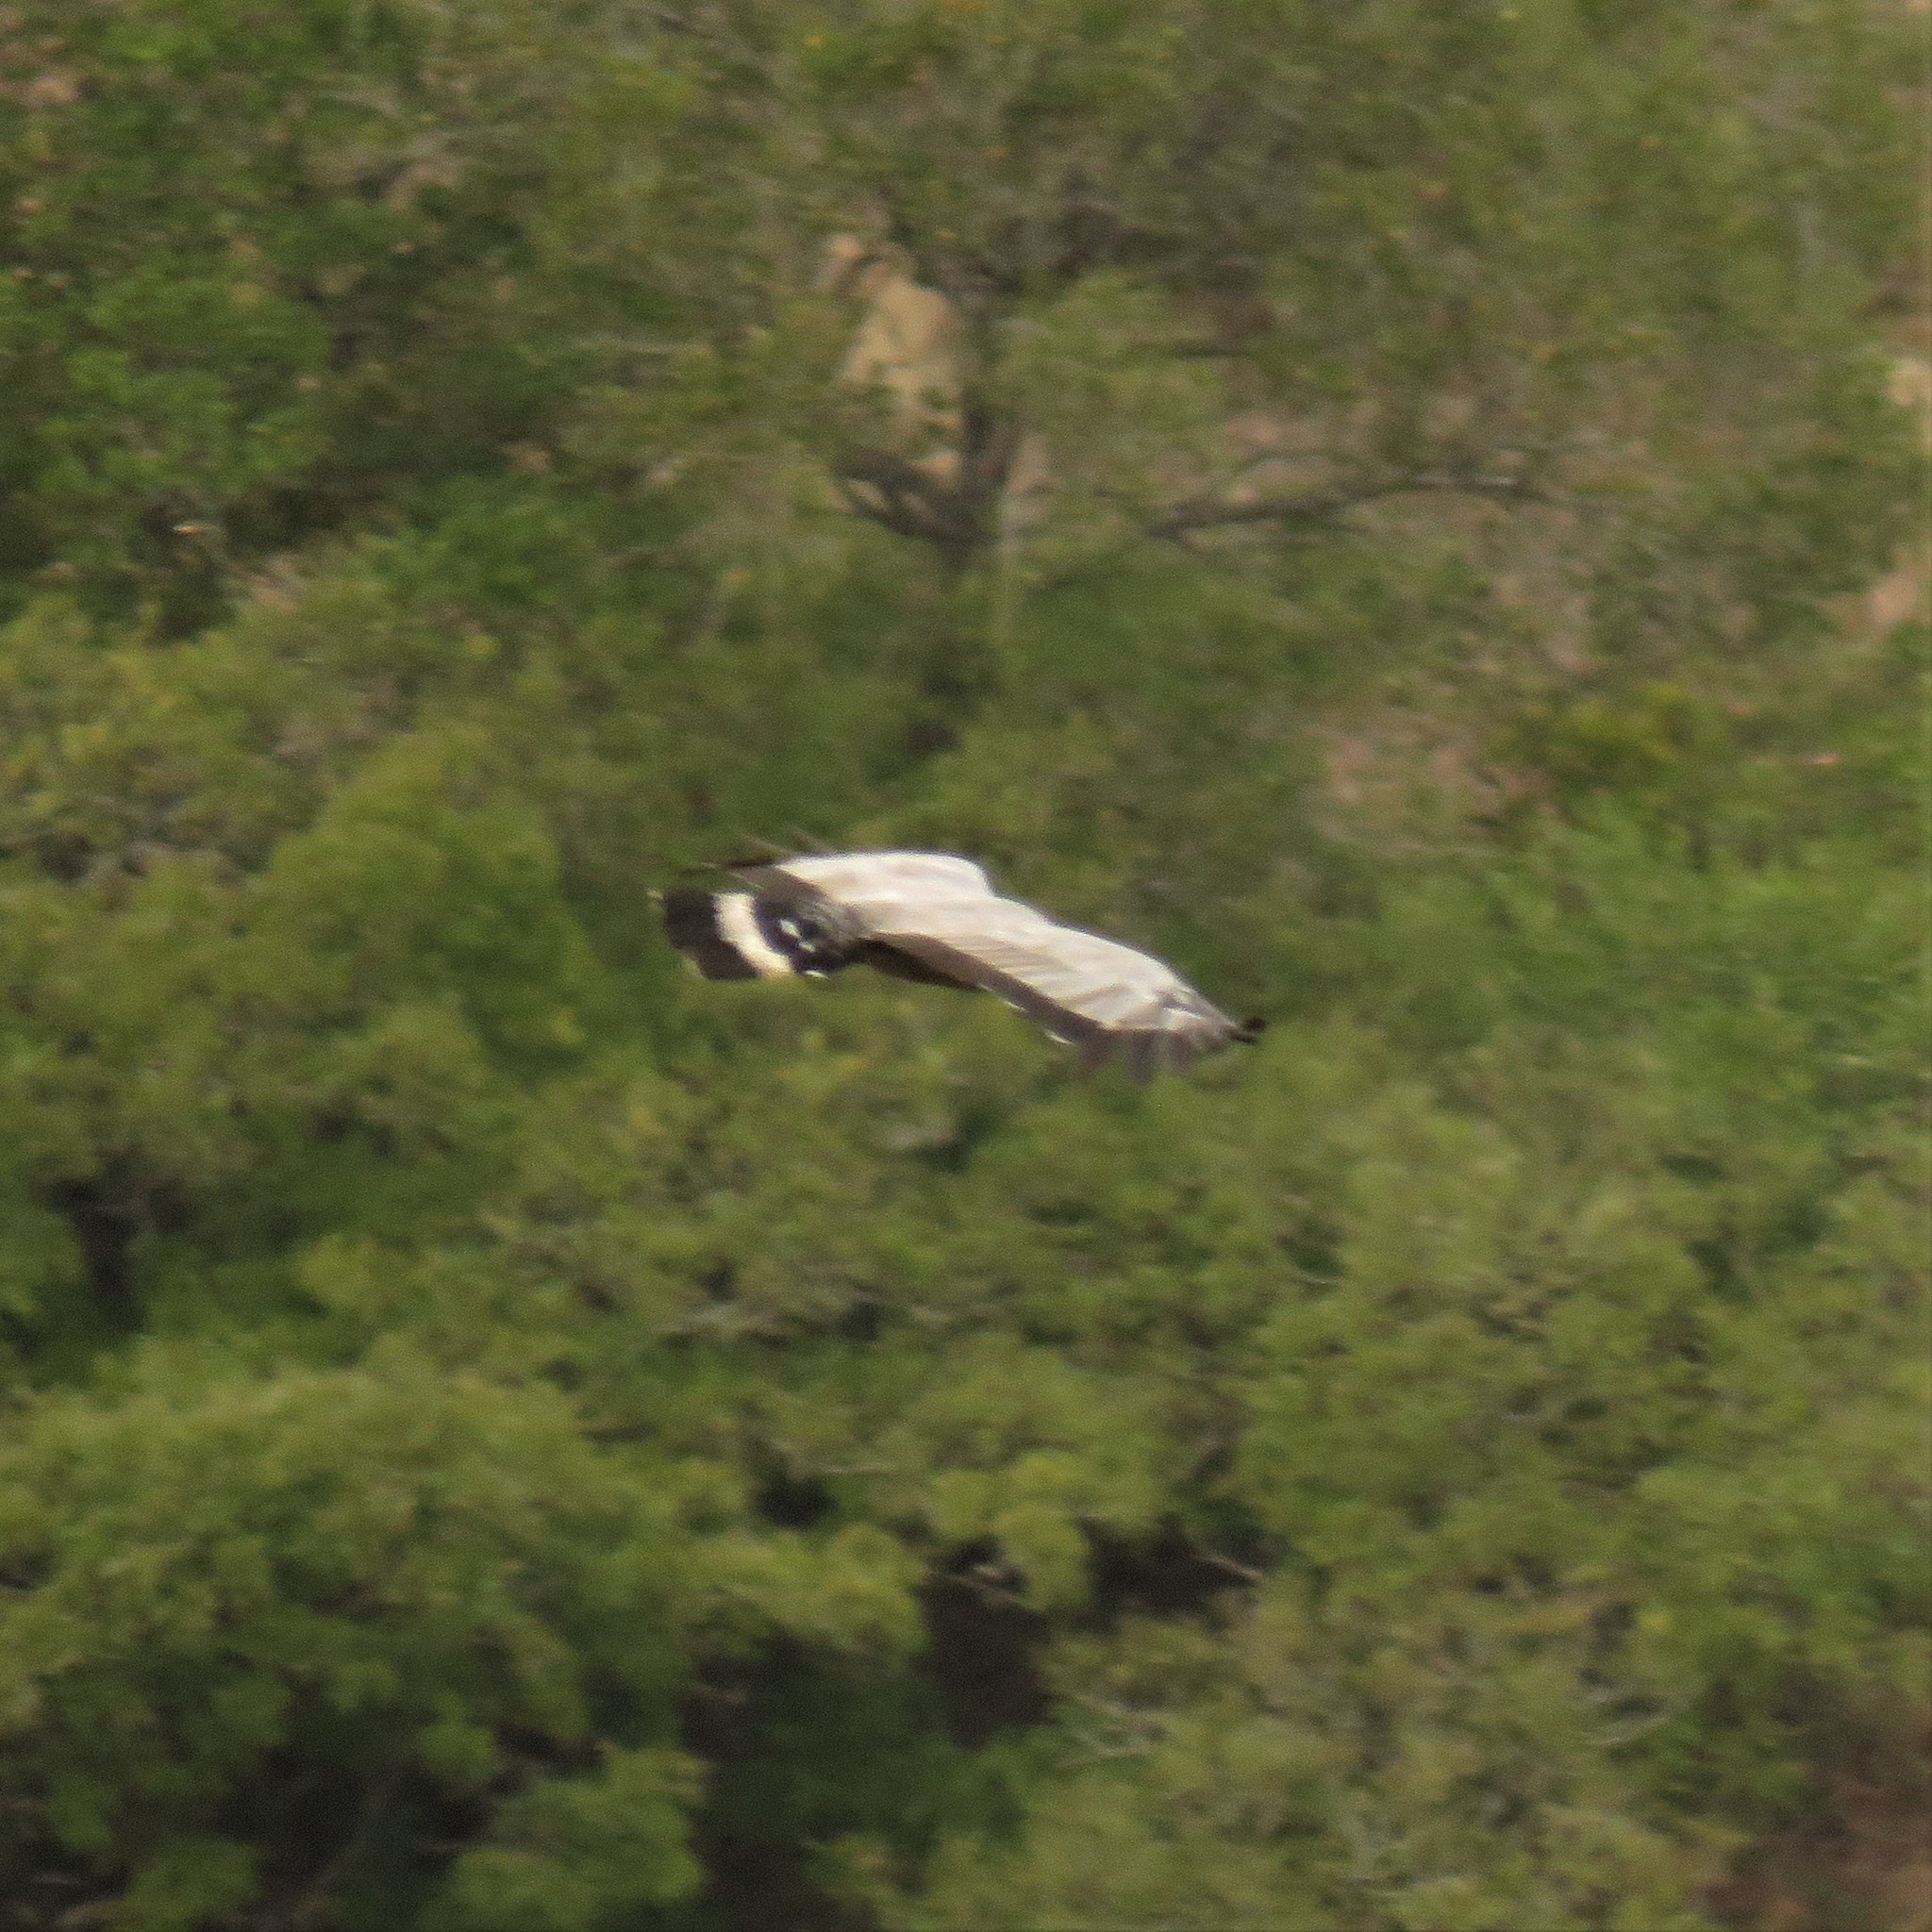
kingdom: Animalia
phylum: Chordata
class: Aves
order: Accipitriformes
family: Accipitridae
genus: Polyboroides
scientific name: Polyboroides typus
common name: African harrier-hawk
